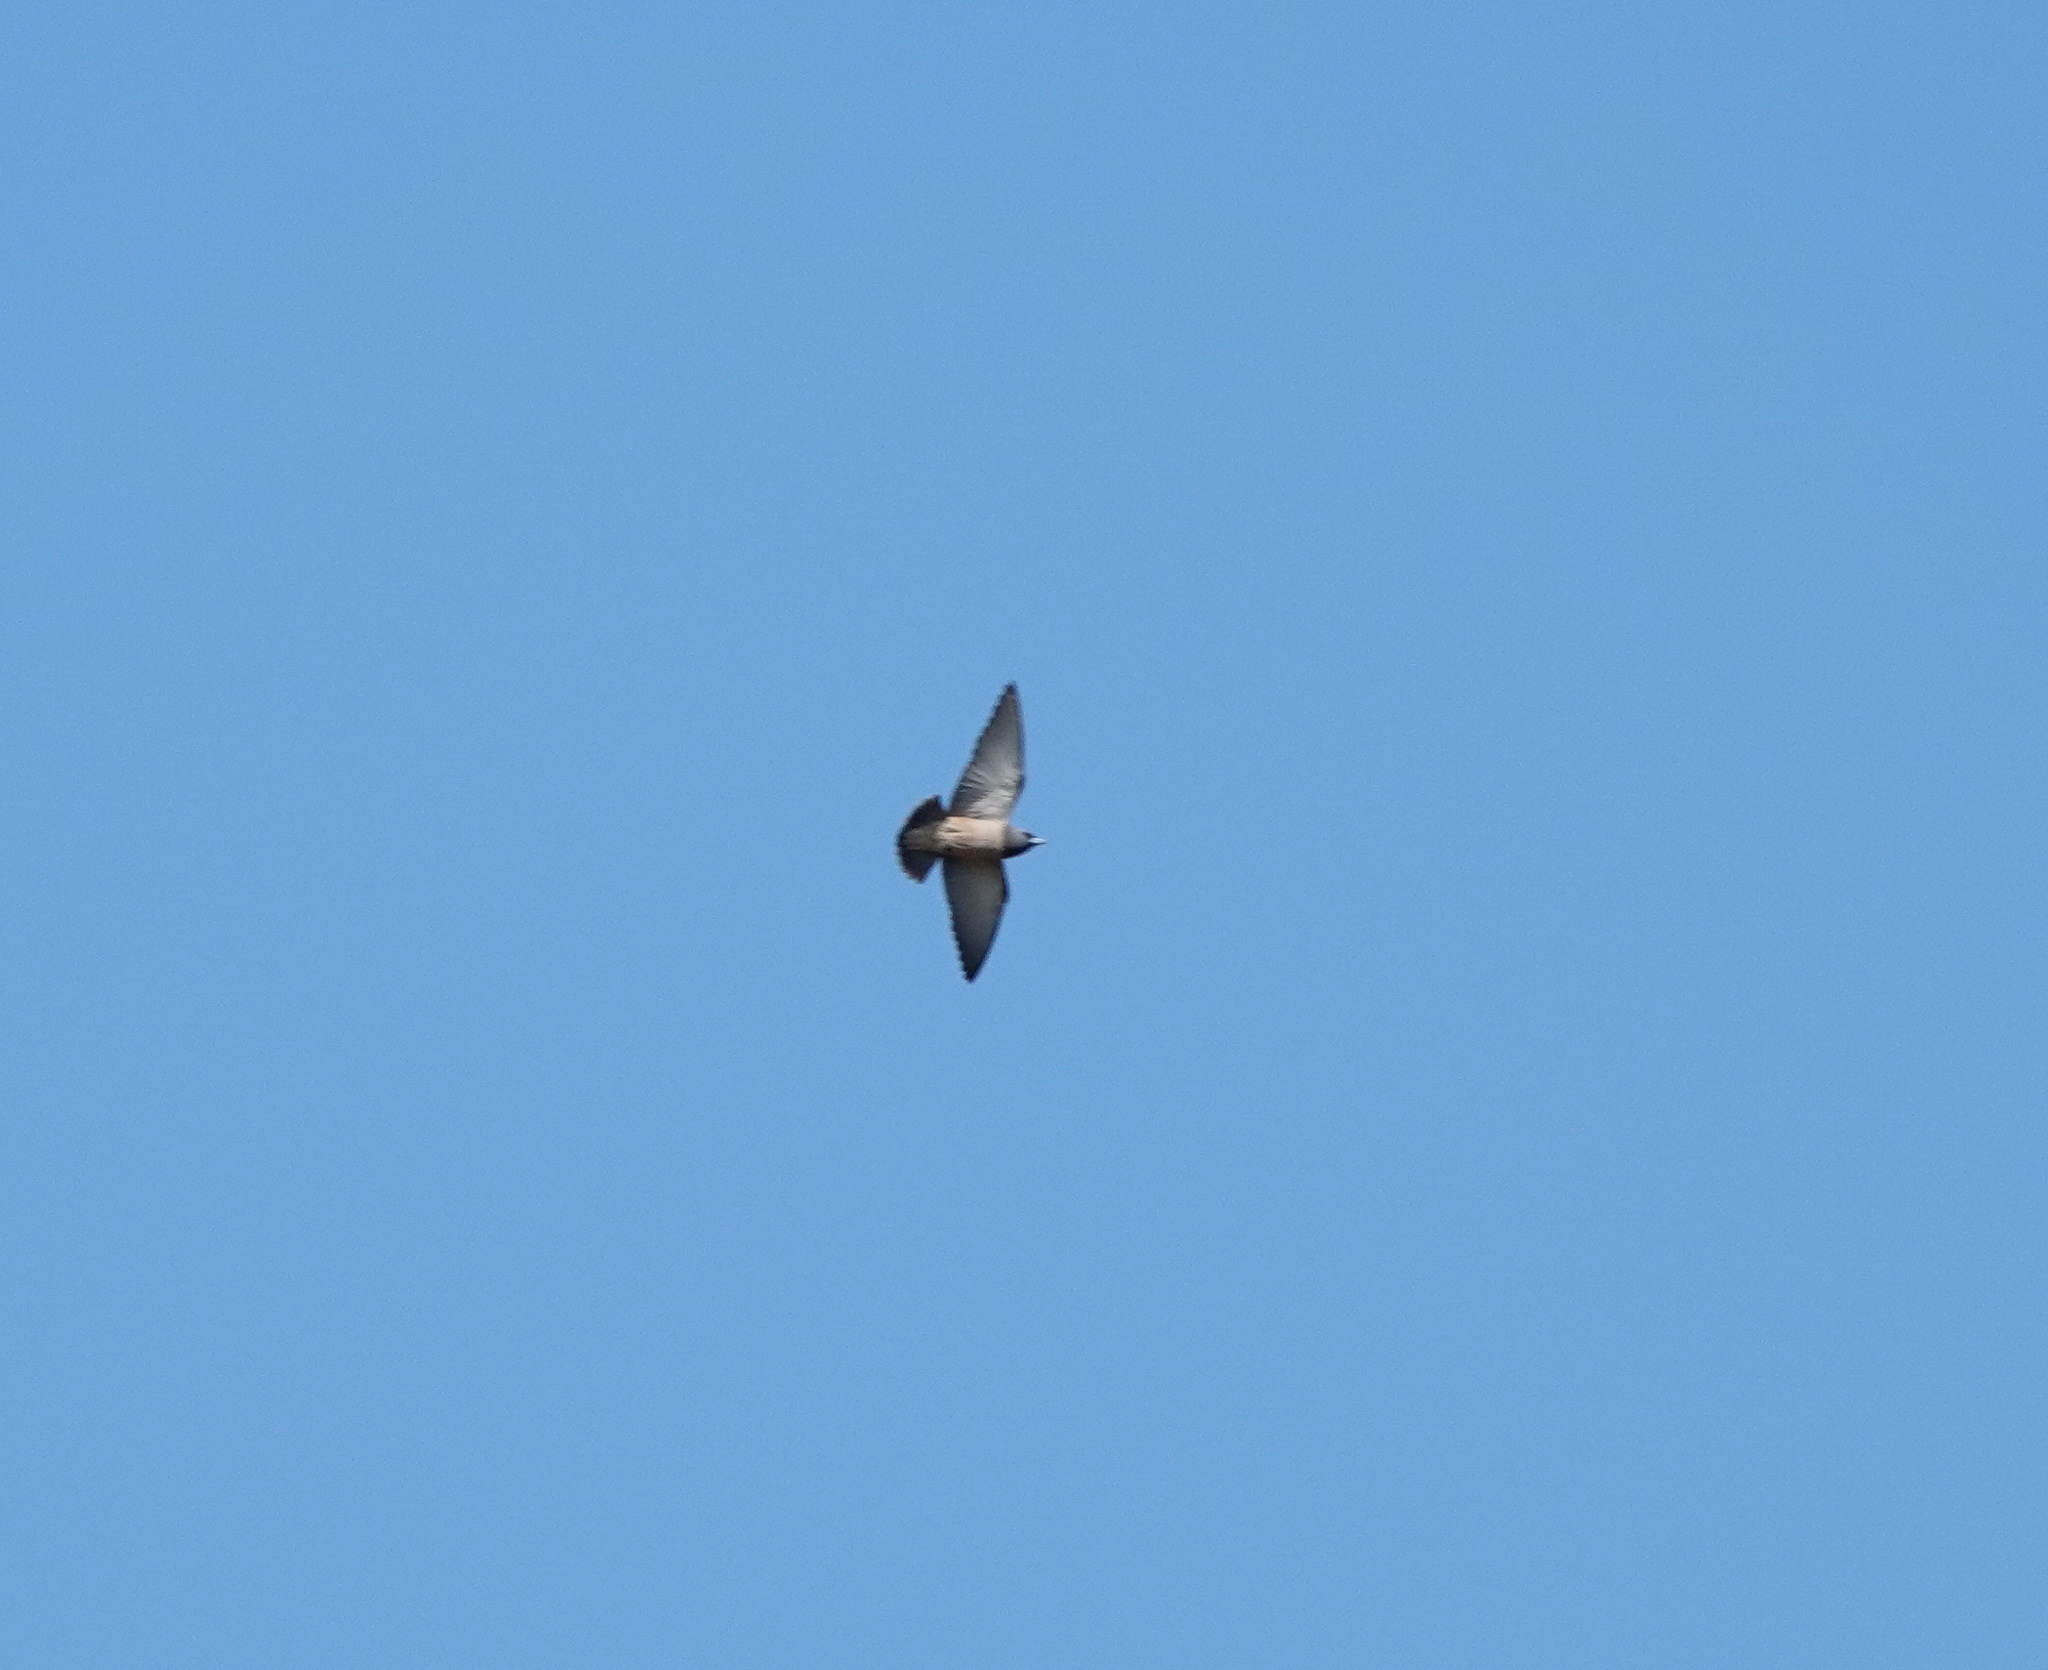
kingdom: Animalia
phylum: Chordata
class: Aves
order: Passeriformes
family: Artamidae
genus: Artamus
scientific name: Artamus fuscus
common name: Ashy woodswallow
